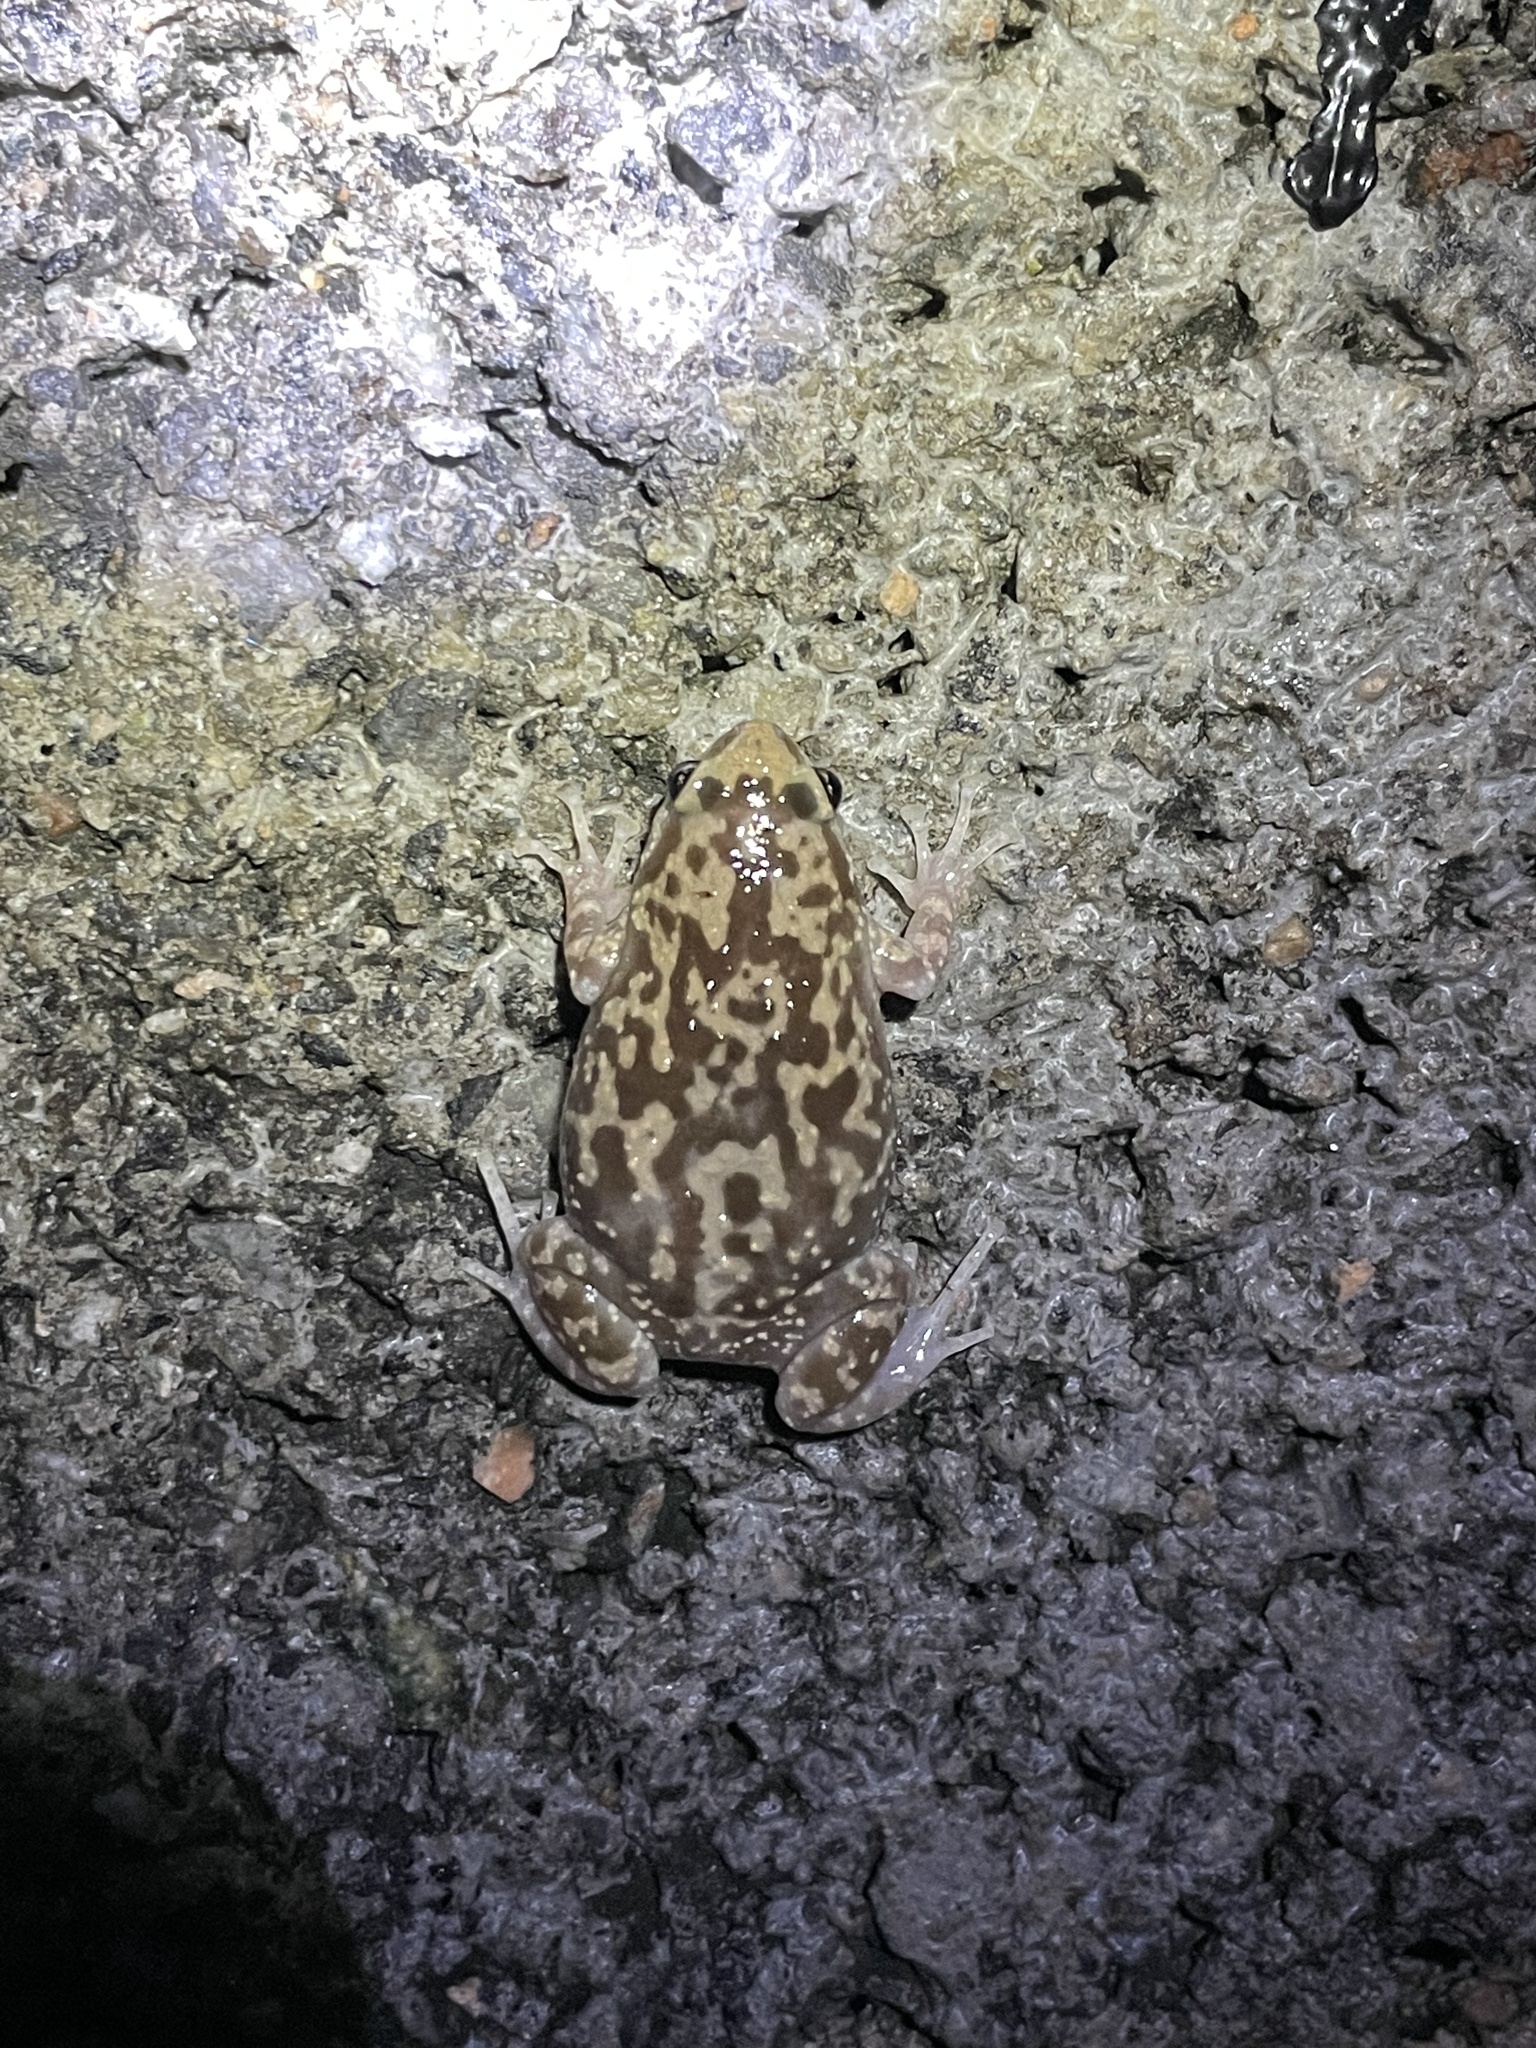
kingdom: Animalia
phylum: Chordata
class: Amphibia
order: Anura
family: Microhylidae
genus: Uperodon
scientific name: Uperodon variegatus
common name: Eluru dot frog
